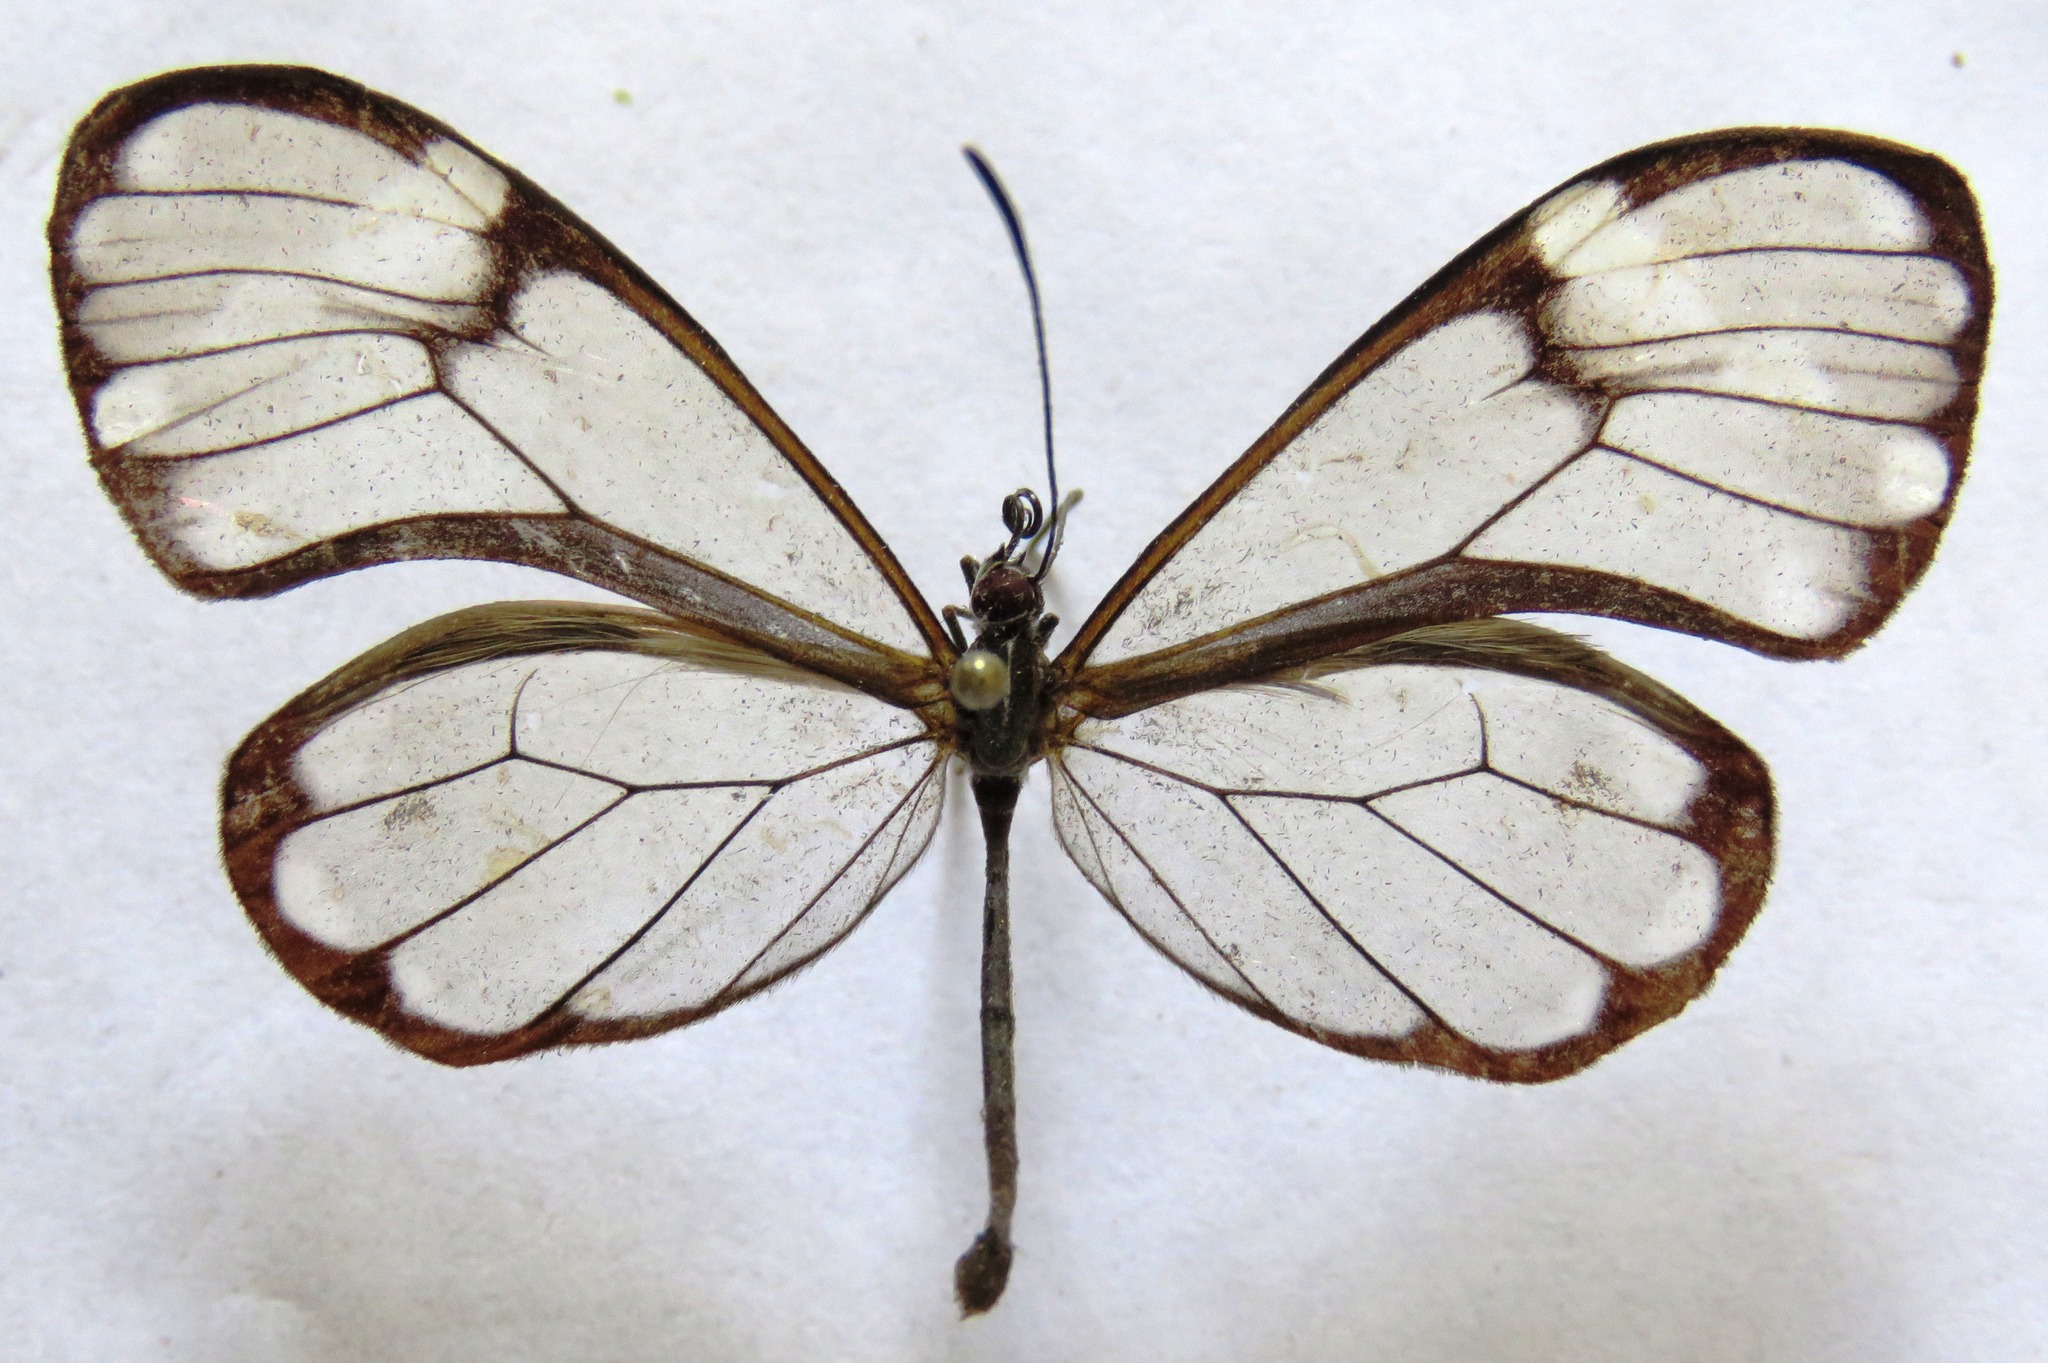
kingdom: Animalia
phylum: Arthropoda
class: Insecta
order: Lepidoptera
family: Nymphalidae
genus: Greta
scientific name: Greta annette
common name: White-spotted clearwing
